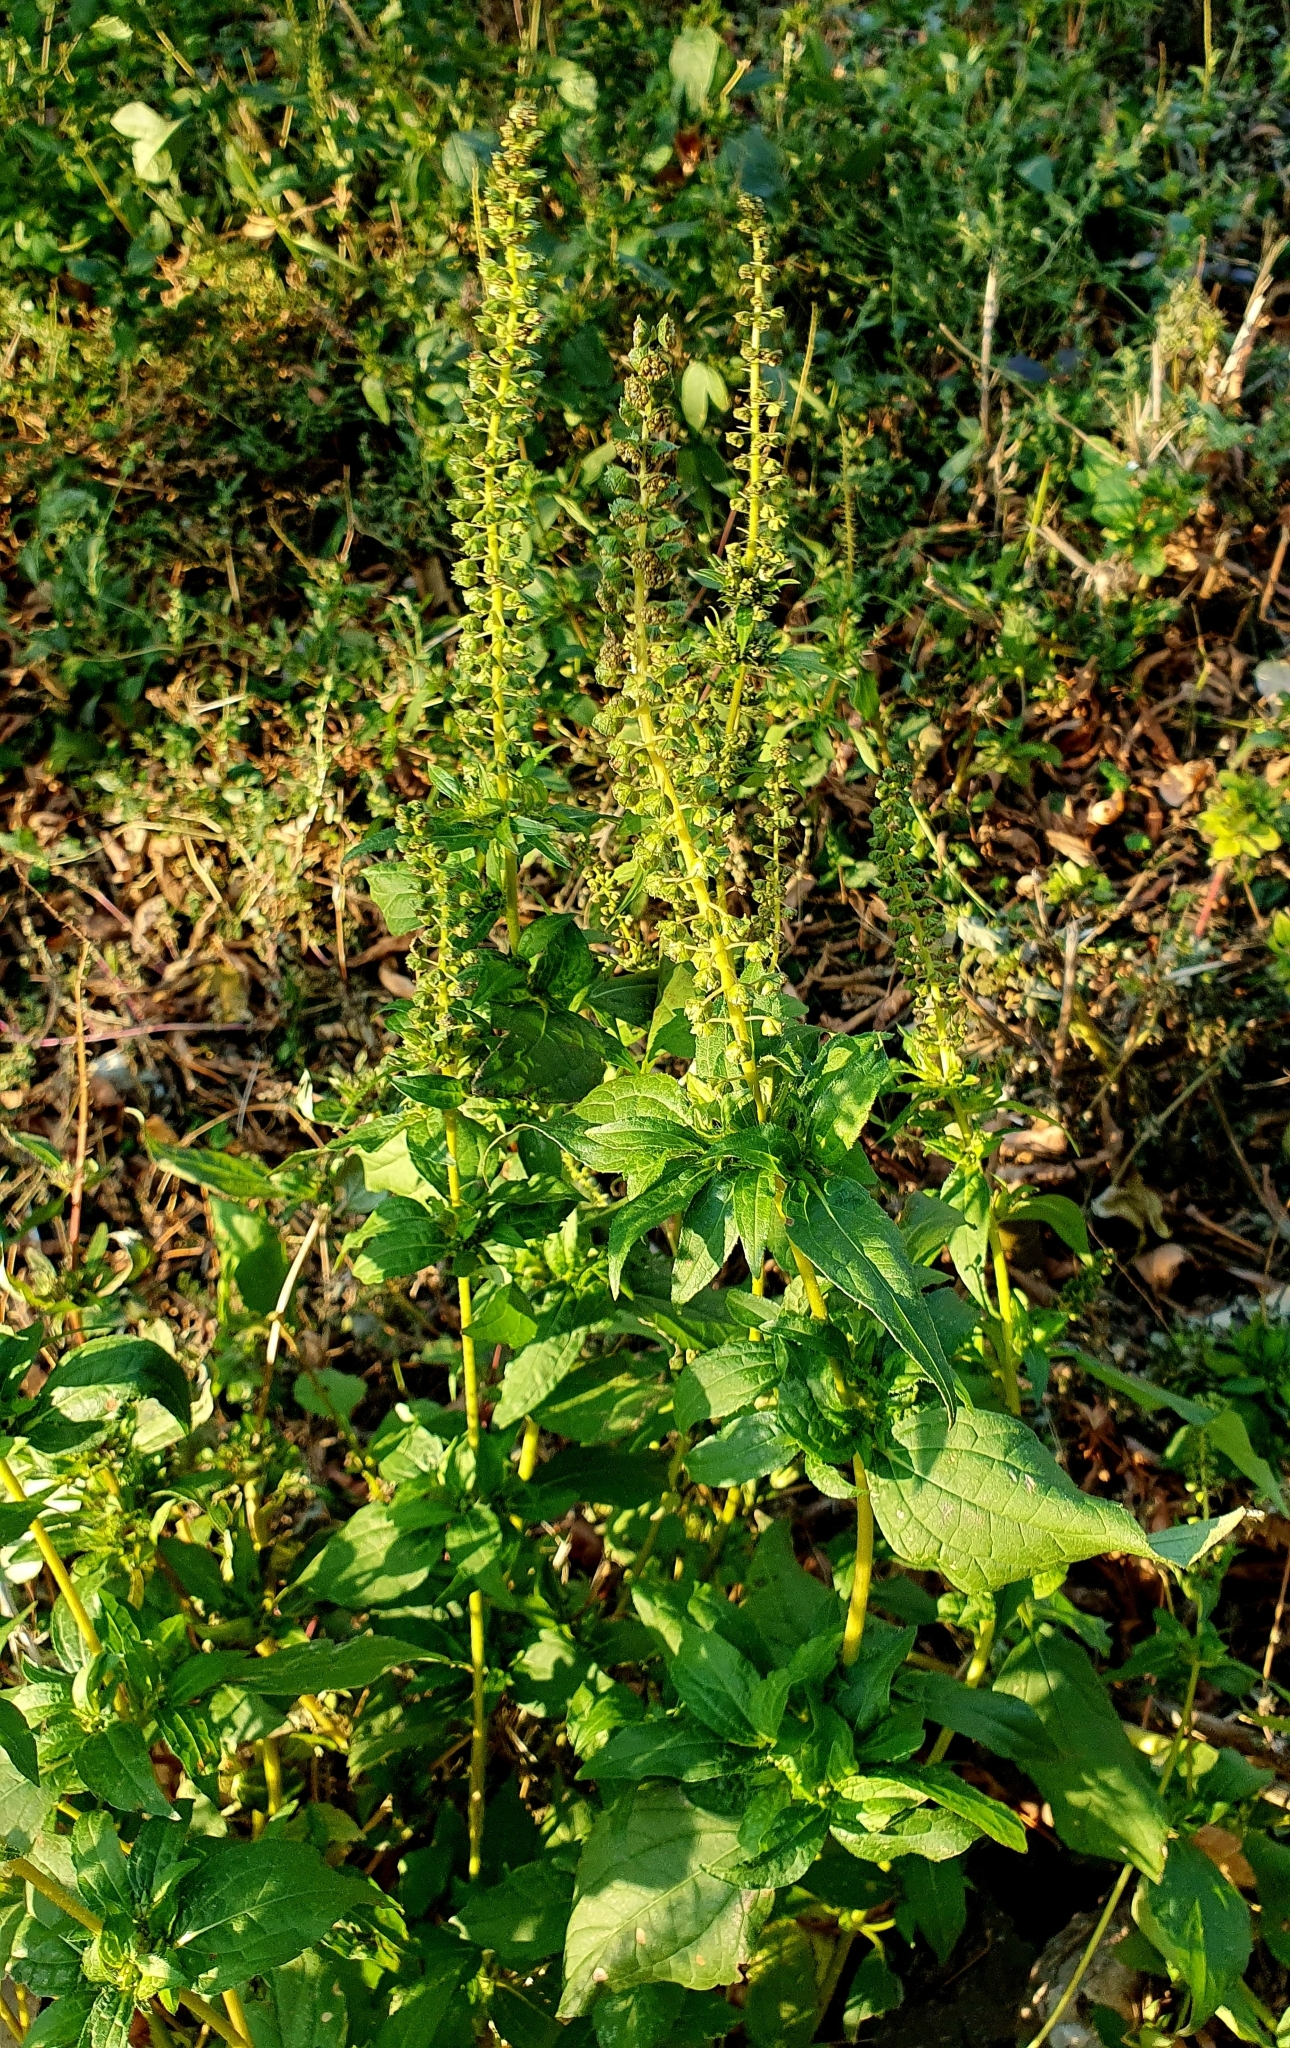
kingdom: Plantae
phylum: Tracheophyta
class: Magnoliopsida
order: Asterales
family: Asteraceae
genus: Ambrosia
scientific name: Ambrosia trifida
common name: Giant ragweed
